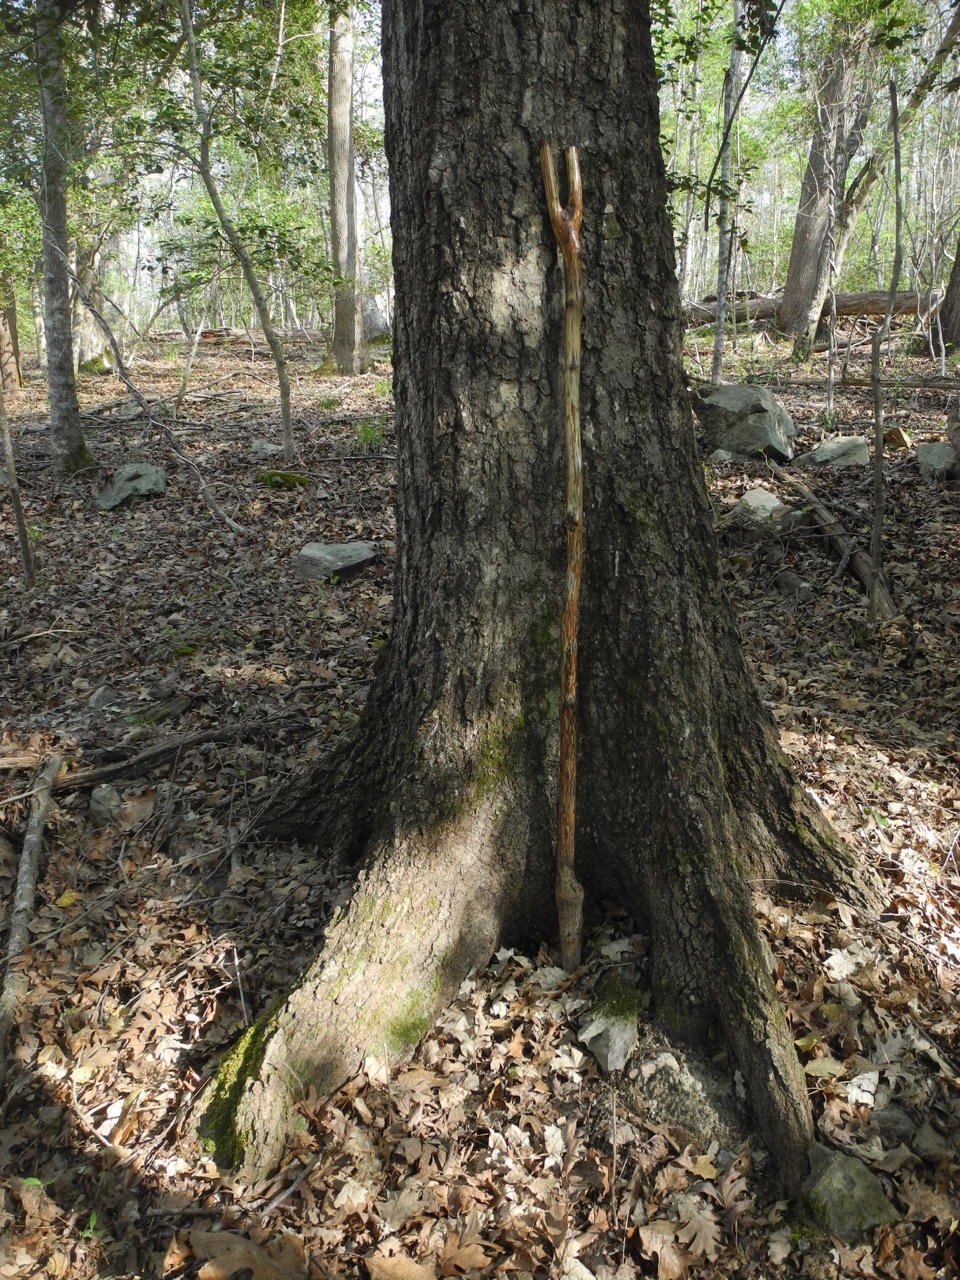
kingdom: Plantae
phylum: Tracheophyta
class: Magnoliopsida
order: Fagales
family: Fagaceae
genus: Quercus
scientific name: Quercus rubra
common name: Red oak
